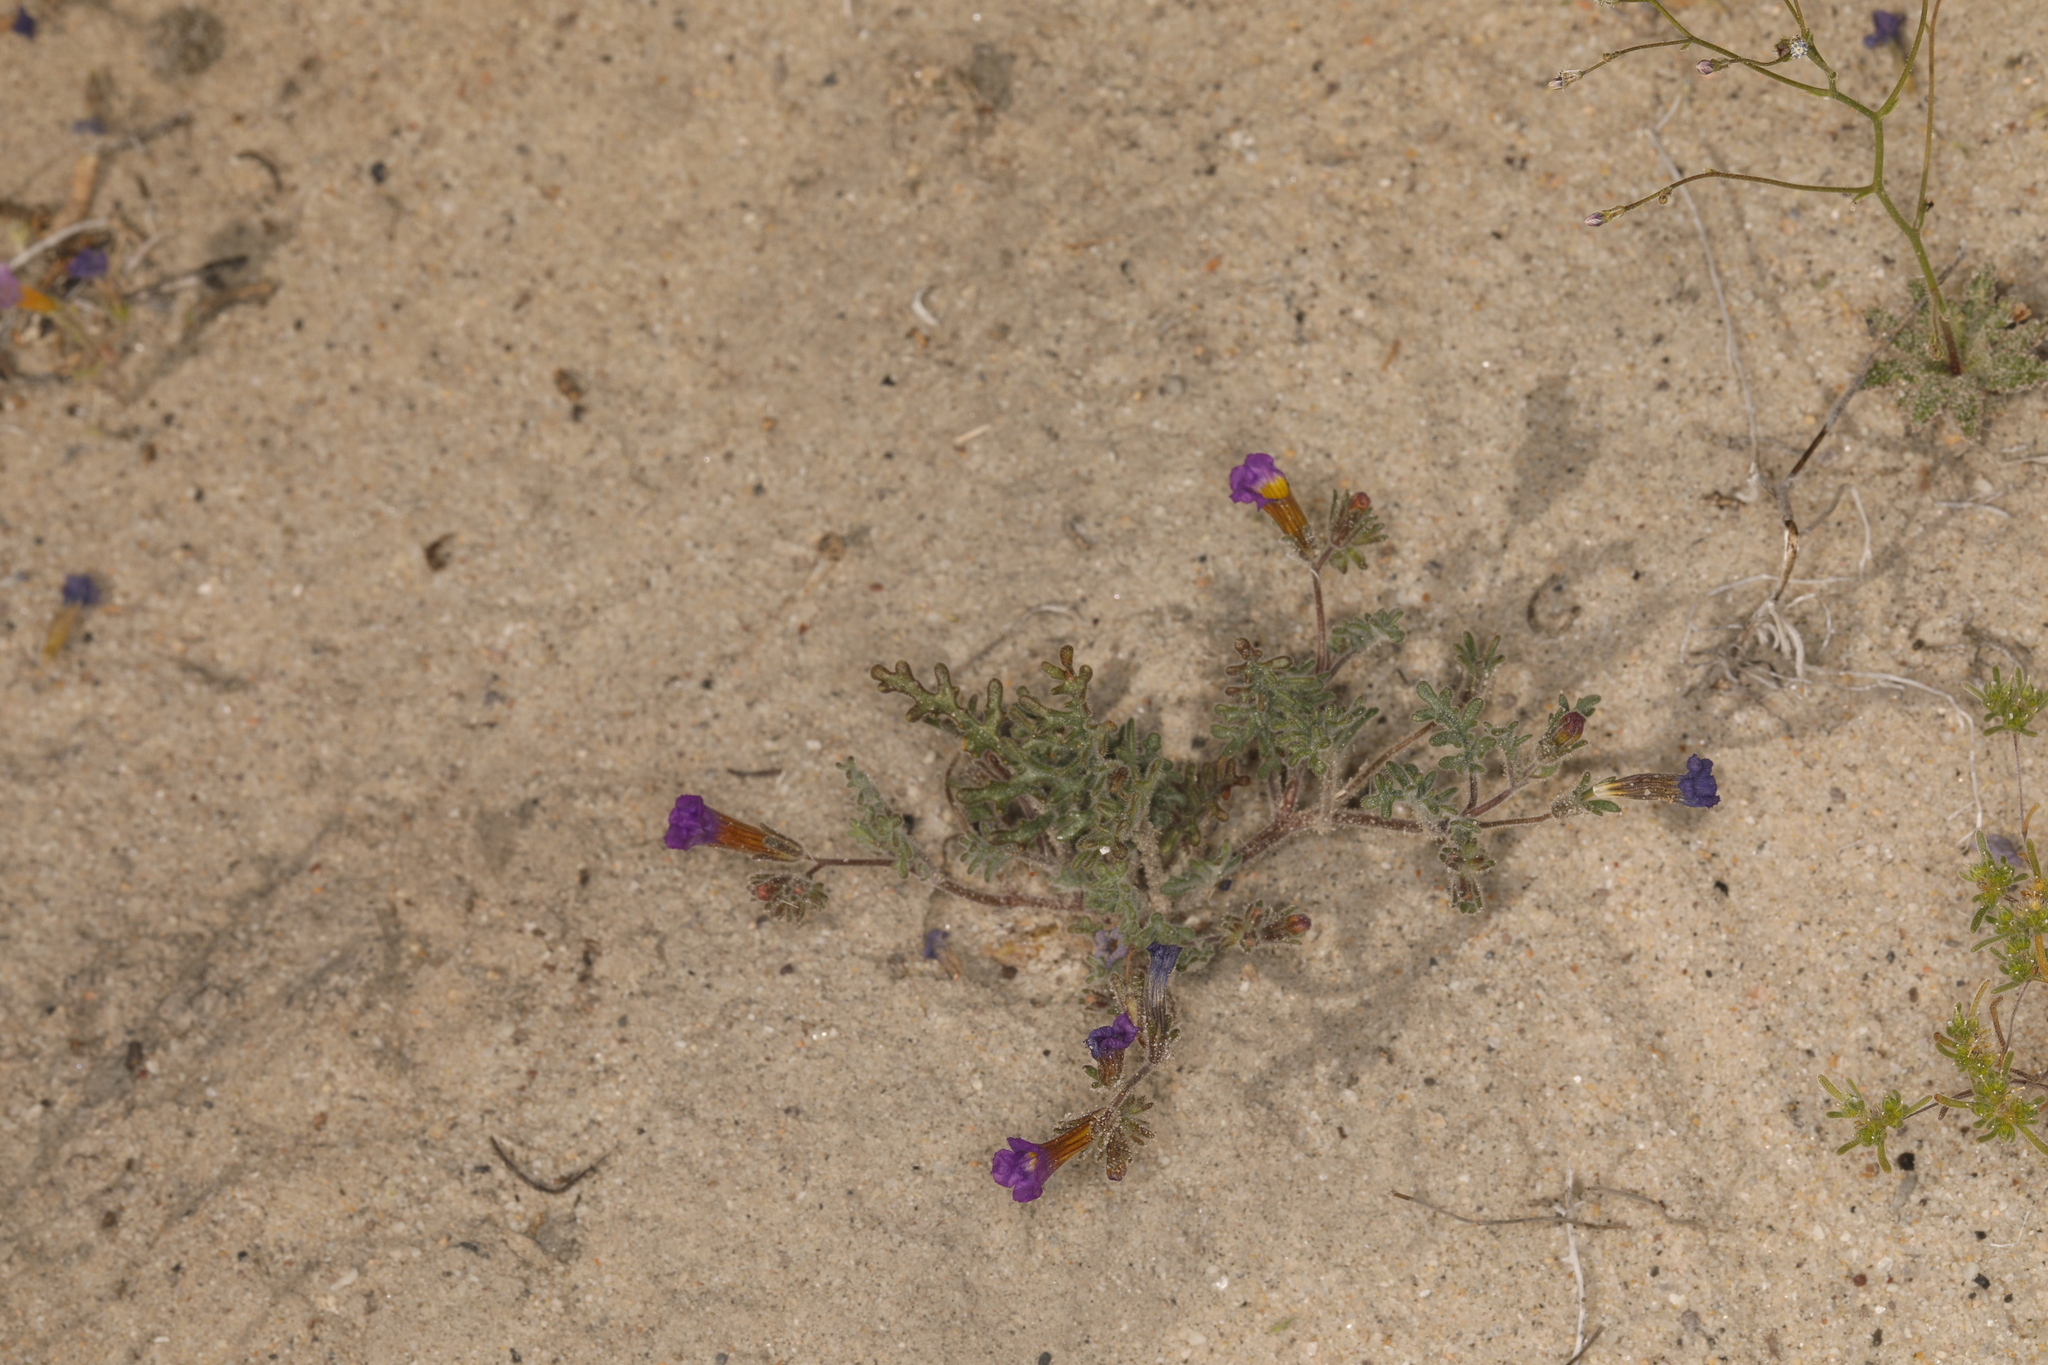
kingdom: Plantae
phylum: Tracheophyta
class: Magnoliopsida
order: Boraginales
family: Hydrophyllaceae
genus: Phacelia
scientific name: Phacelia bicolor
